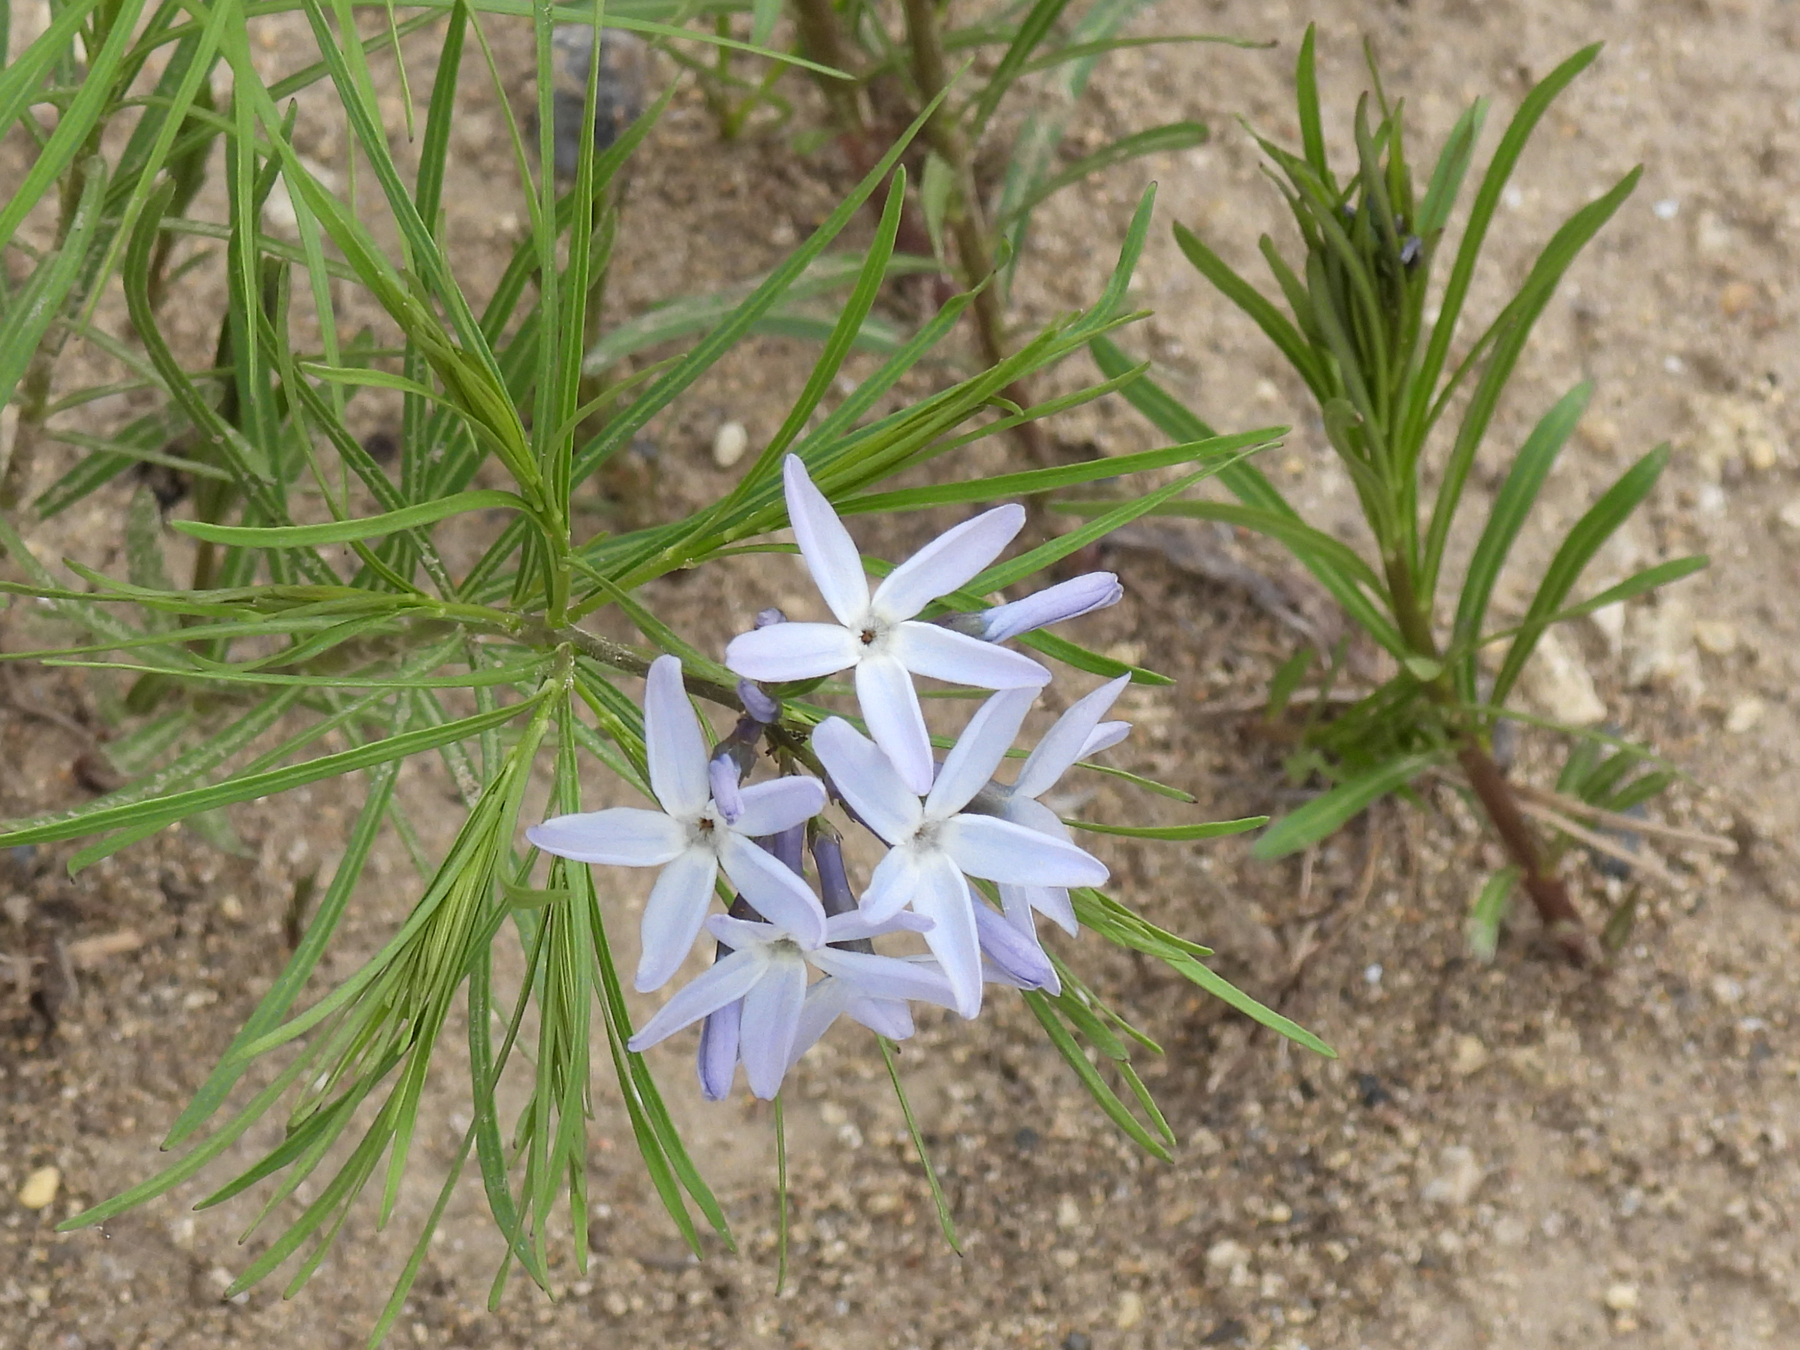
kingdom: Plantae
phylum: Tracheophyta
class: Magnoliopsida
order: Gentianales
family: Apocynaceae
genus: Amsonia
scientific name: Amsonia ciliata
